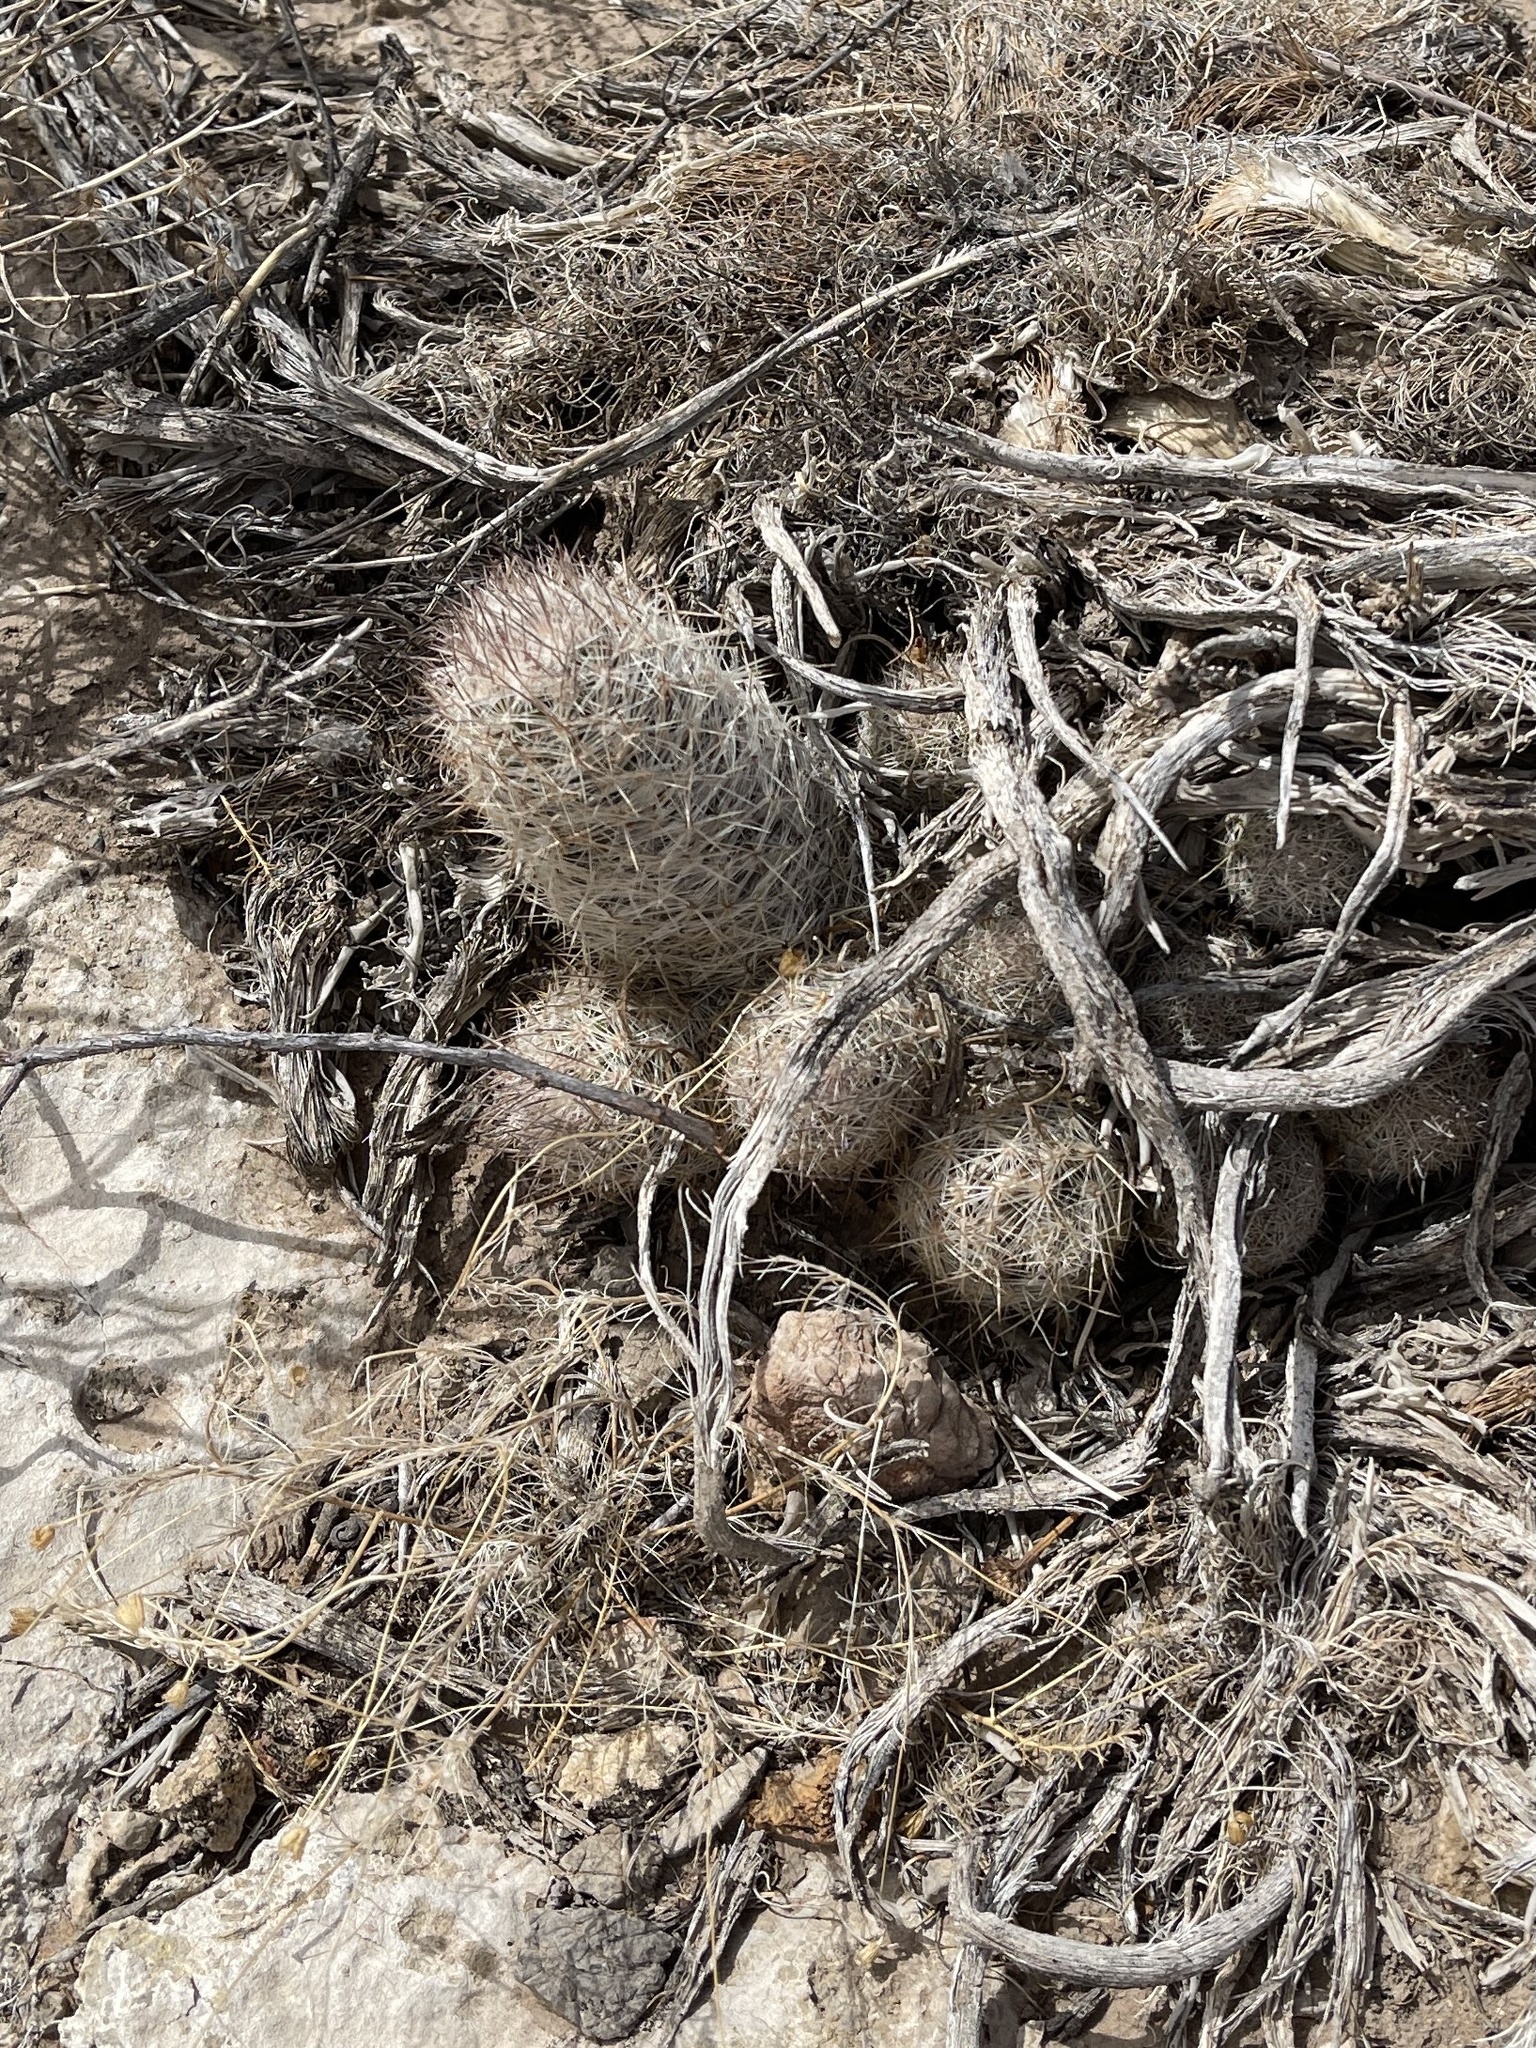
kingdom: Plantae
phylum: Tracheophyta
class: Magnoliopsida
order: Caryophyllales
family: Cactaceae
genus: Pelecyphora
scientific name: Pelecyphora tuberculosa
